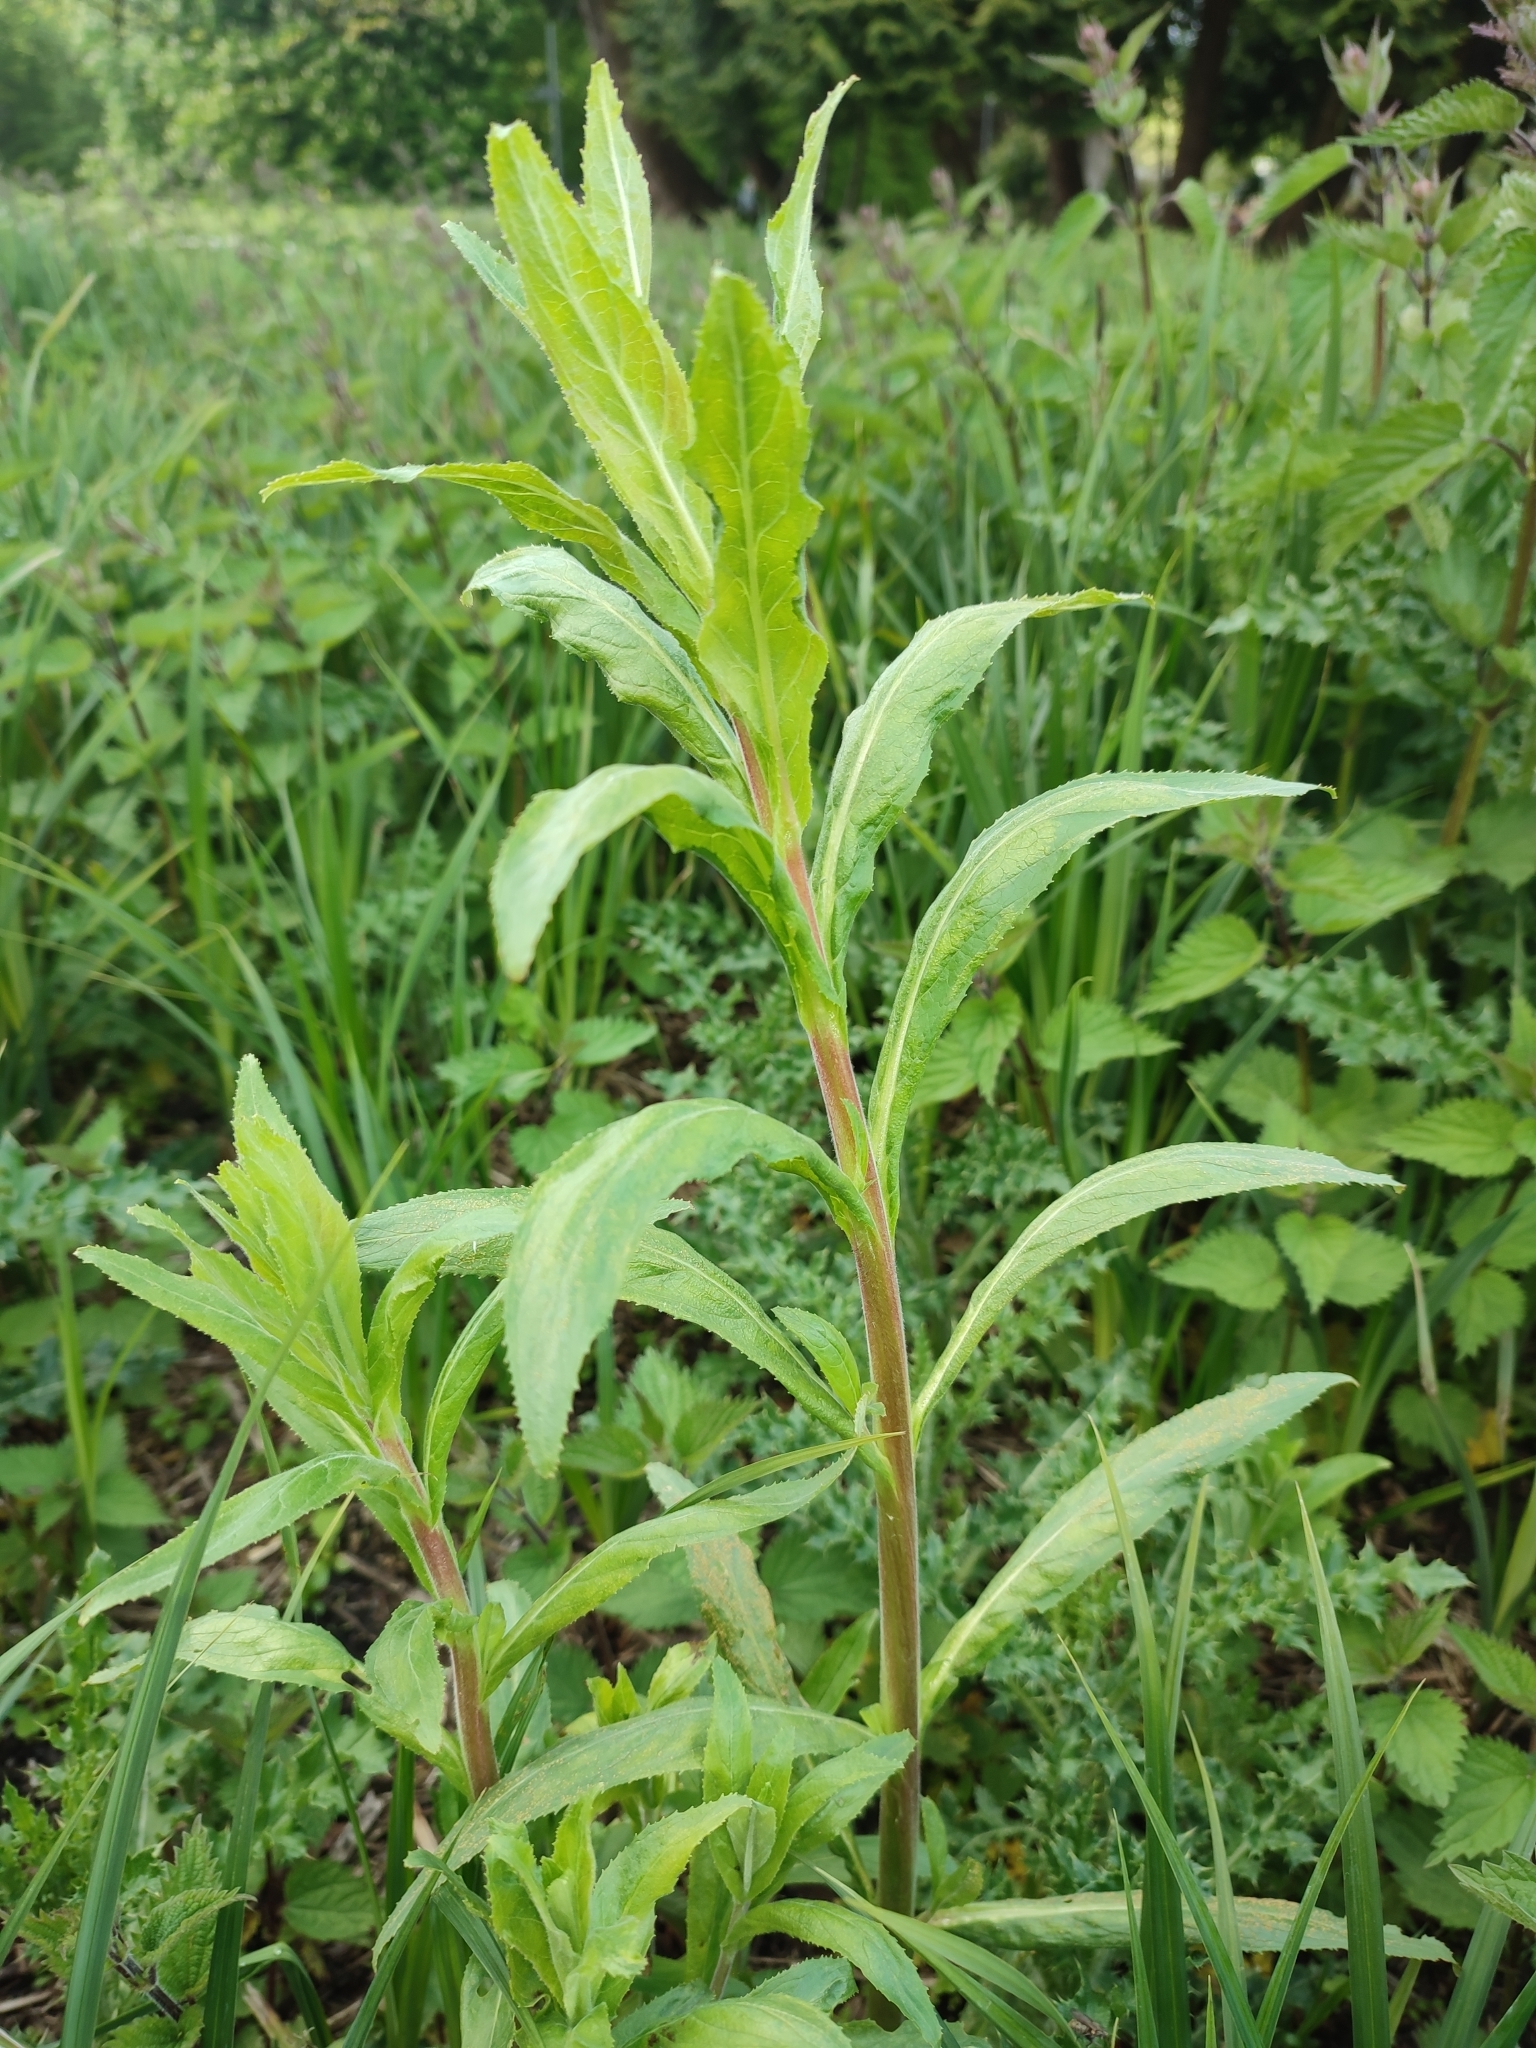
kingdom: Plantae
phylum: Tracheophyta
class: Magnoliopsida
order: Myrtales
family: Onagraceae
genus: Epilobium
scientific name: Epilobium hirsutum
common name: Great willowherb
